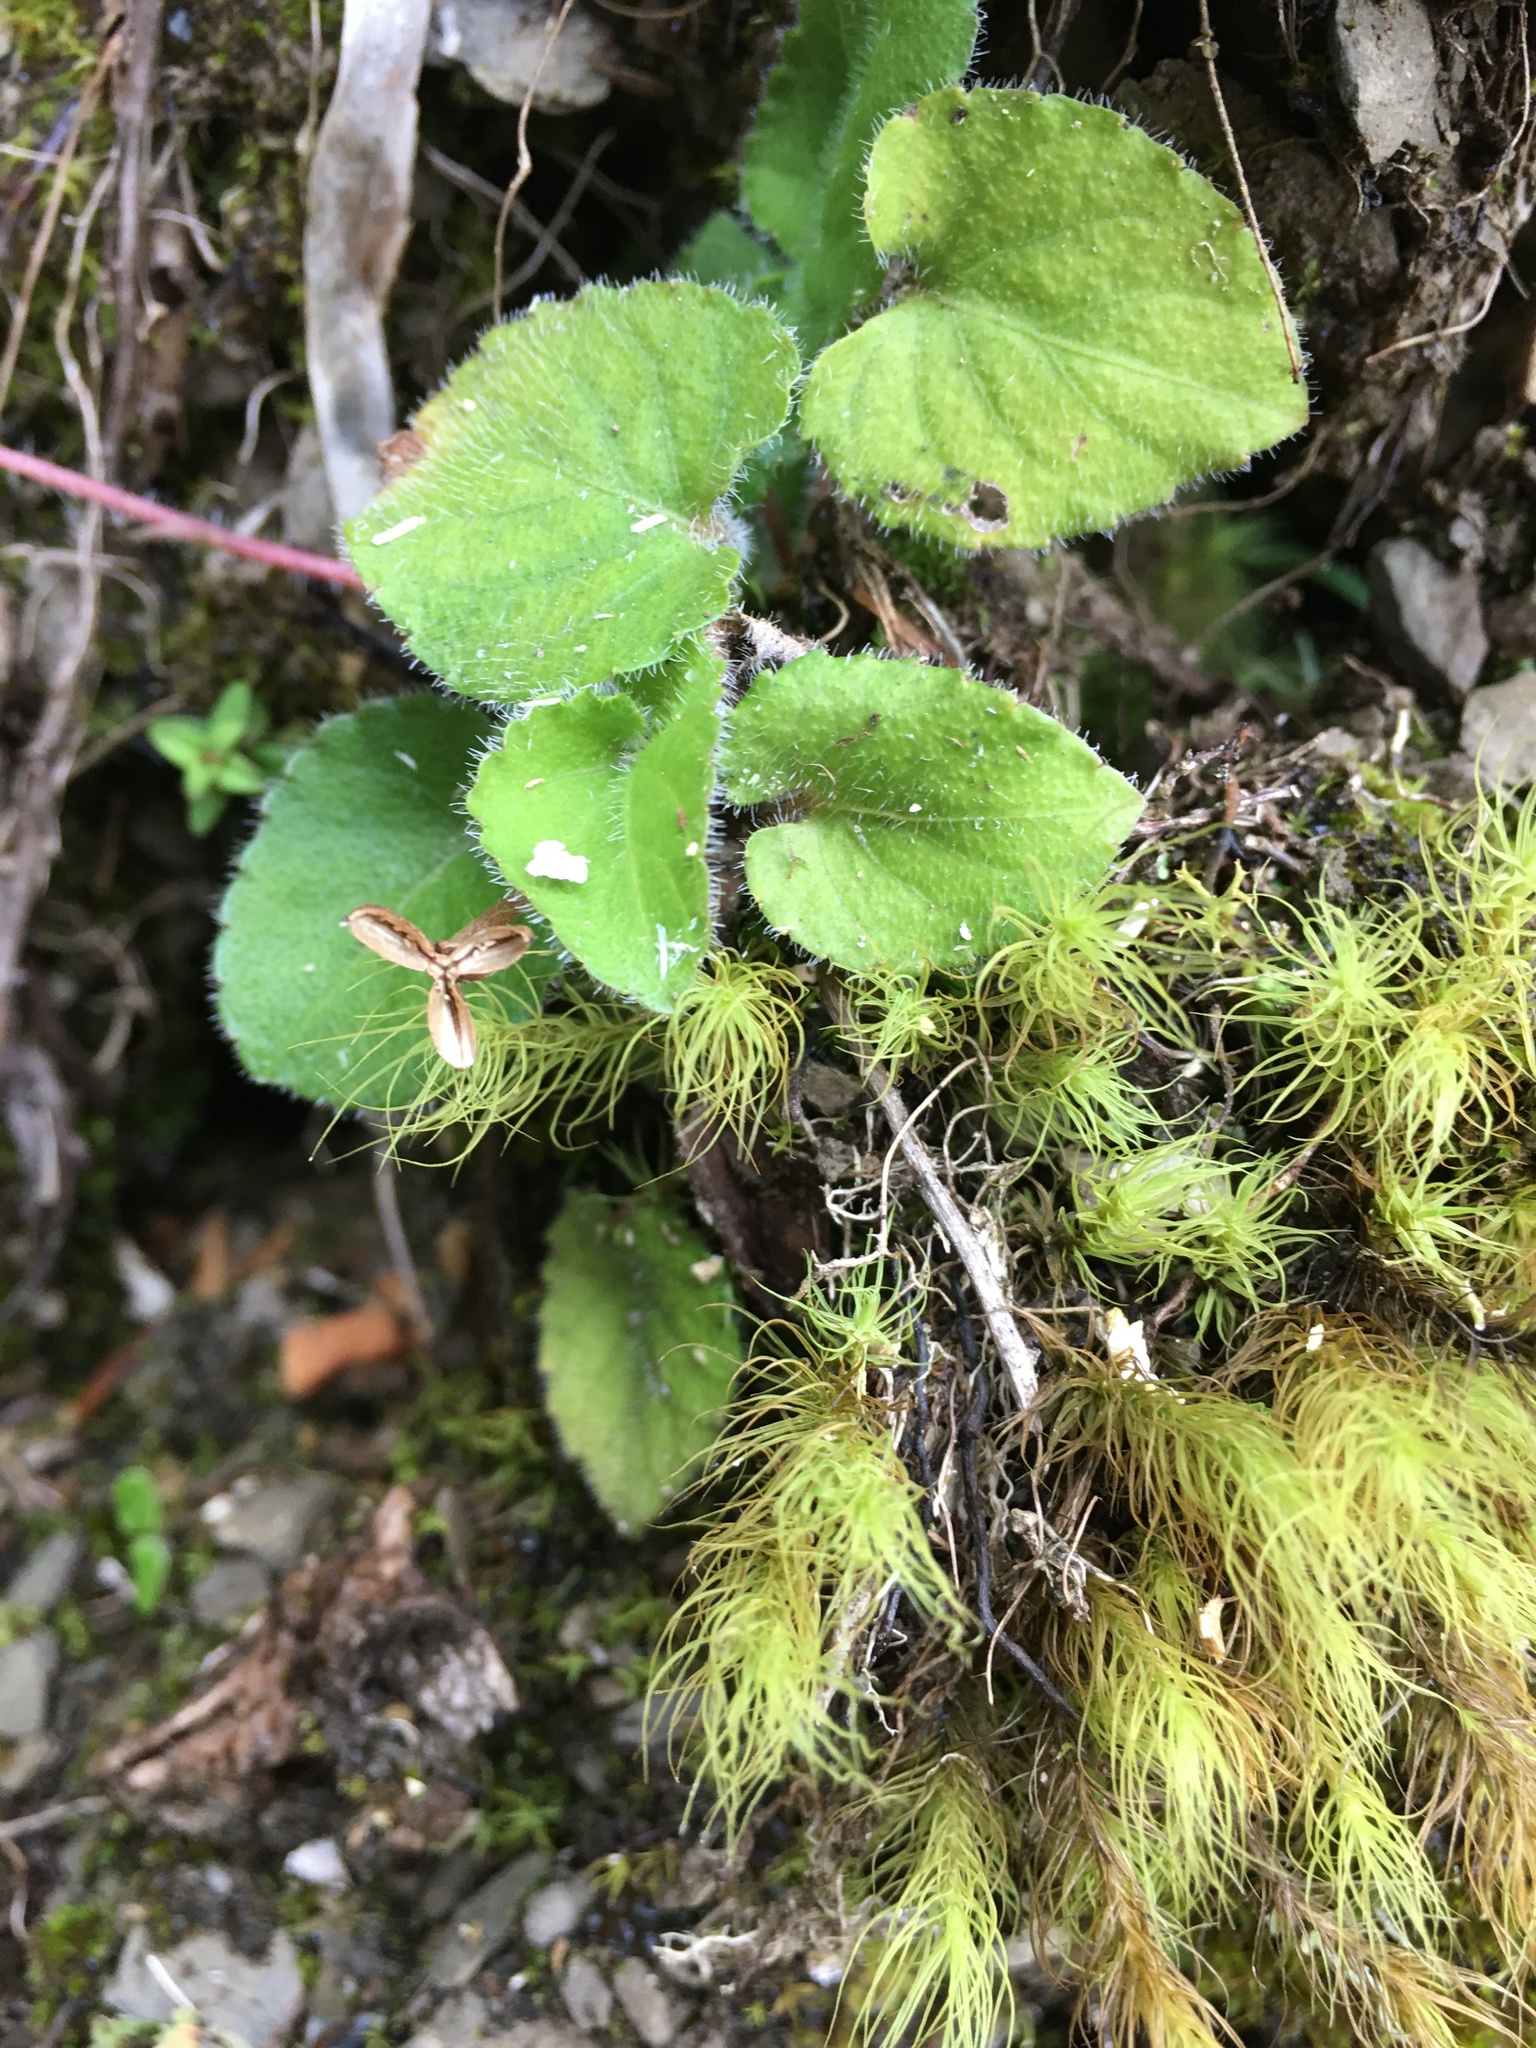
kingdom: Plantae
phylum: Tracheophyta
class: Magnoliopsida
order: Malpighiales
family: Violaceae
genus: Viola
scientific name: Viola adenothrix
